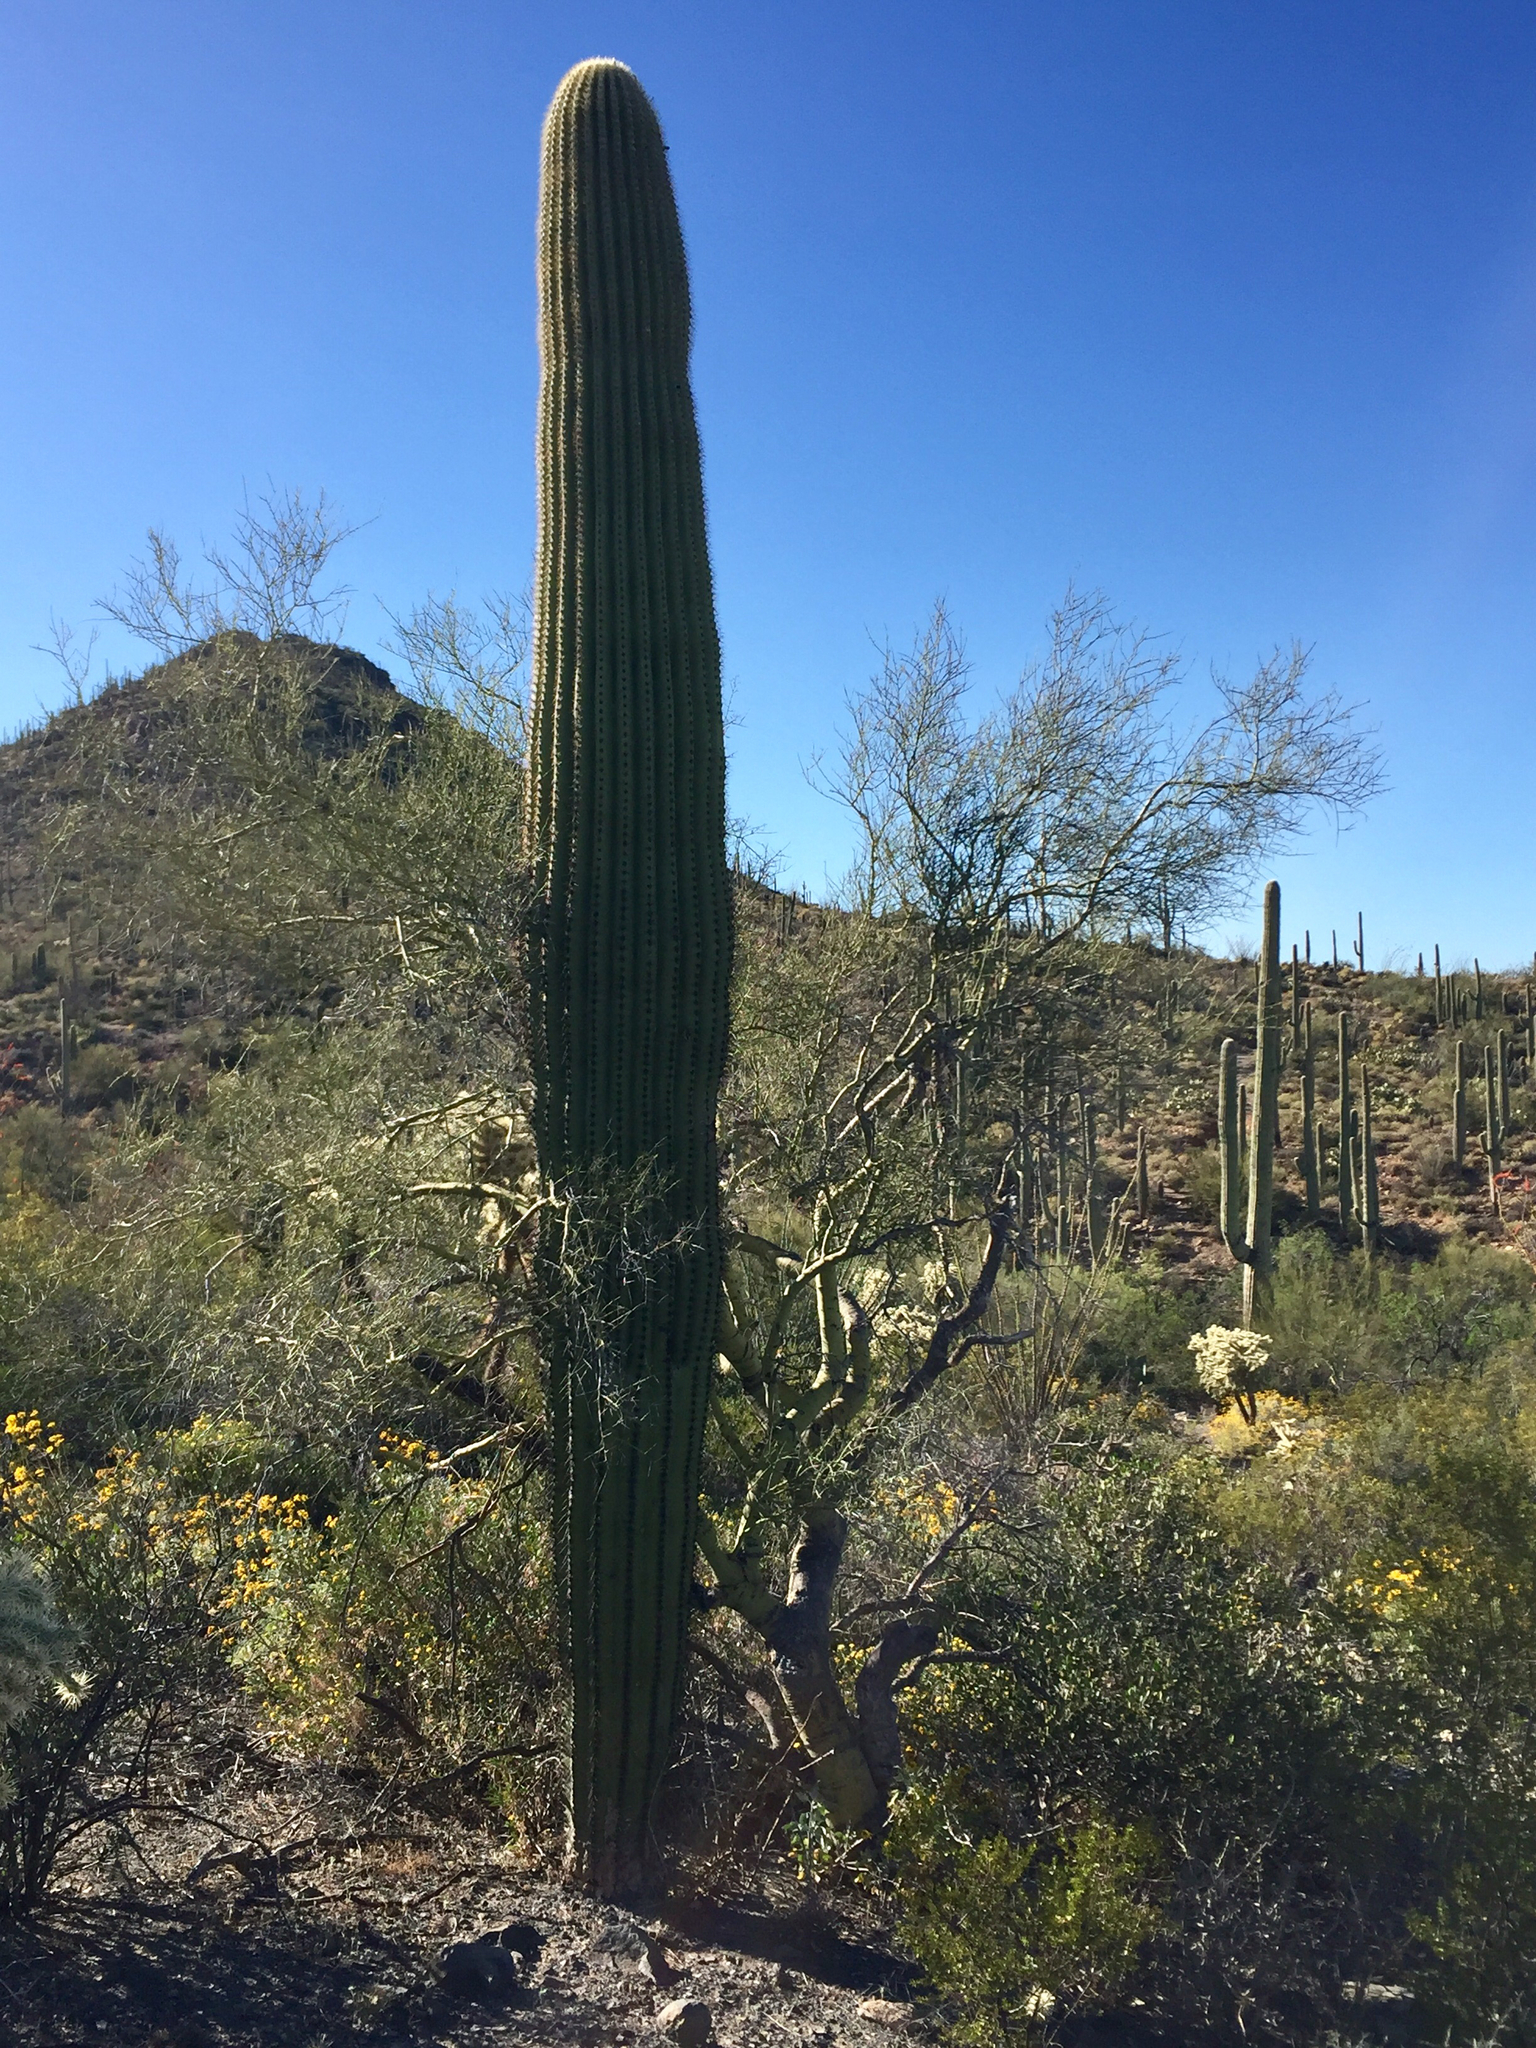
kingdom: Plantae
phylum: Tracheophyta
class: Magnoliopsida
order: Fabales
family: Fabaceae
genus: Parkinsonia
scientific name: Parkinsonia microphylla
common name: Yellow paloverde
